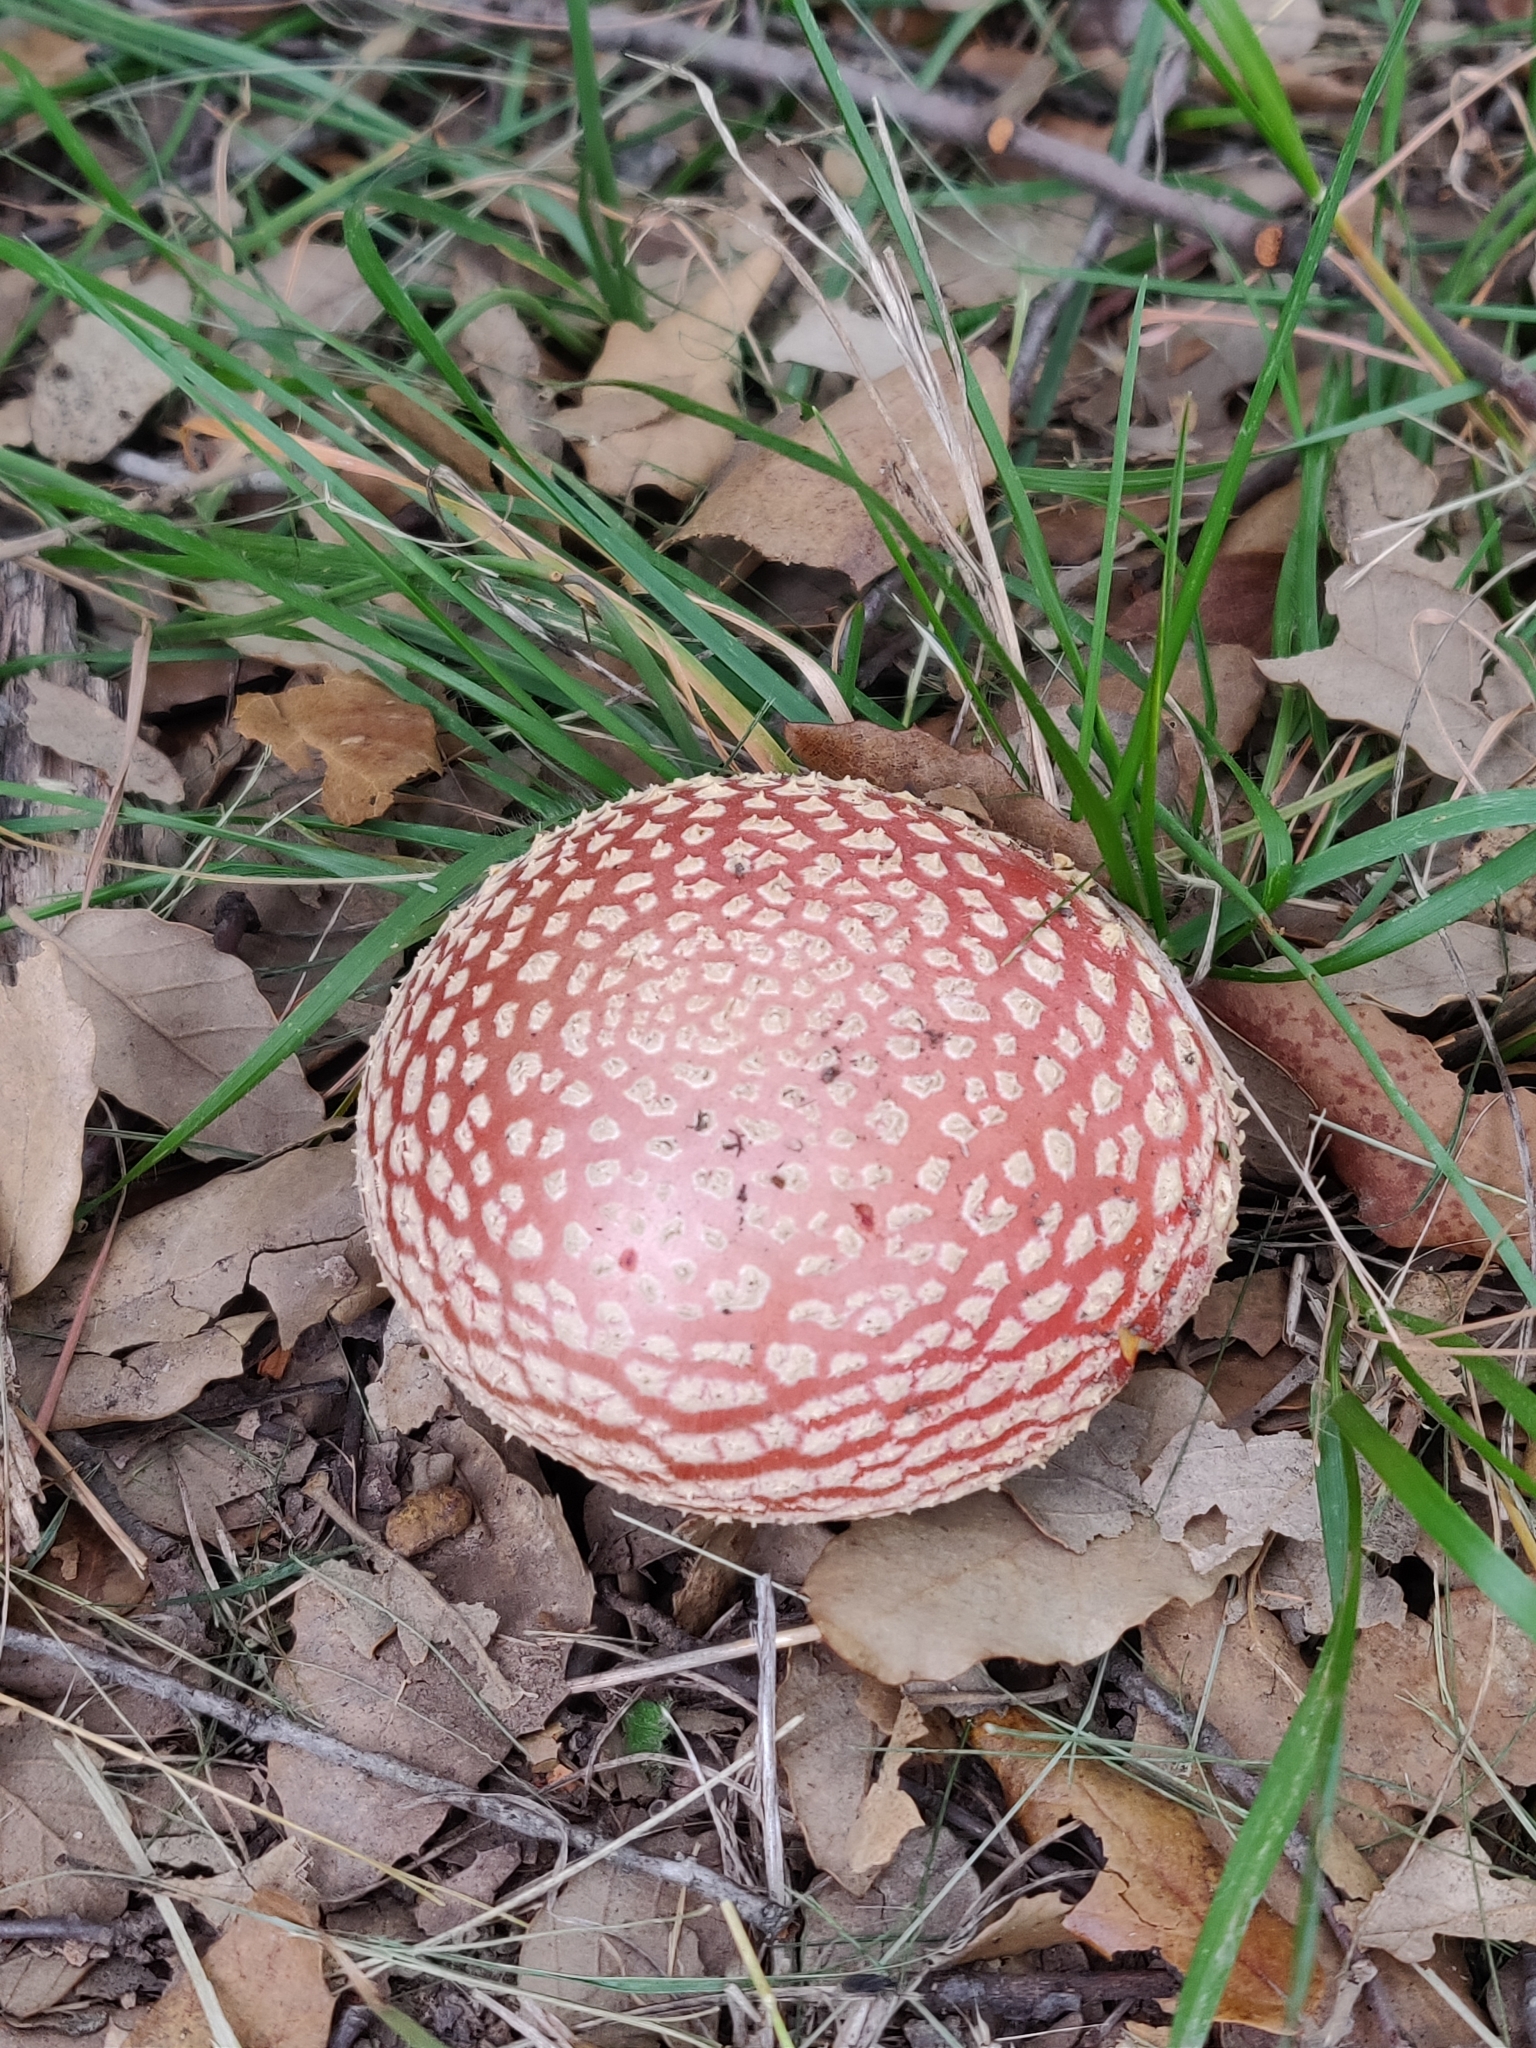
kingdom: Fungi
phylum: Basidiomycota
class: Agaricomycetes
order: Agaricales
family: Amanitaceae
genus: Amanita
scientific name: Amanita muscaria
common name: Fly agaric
